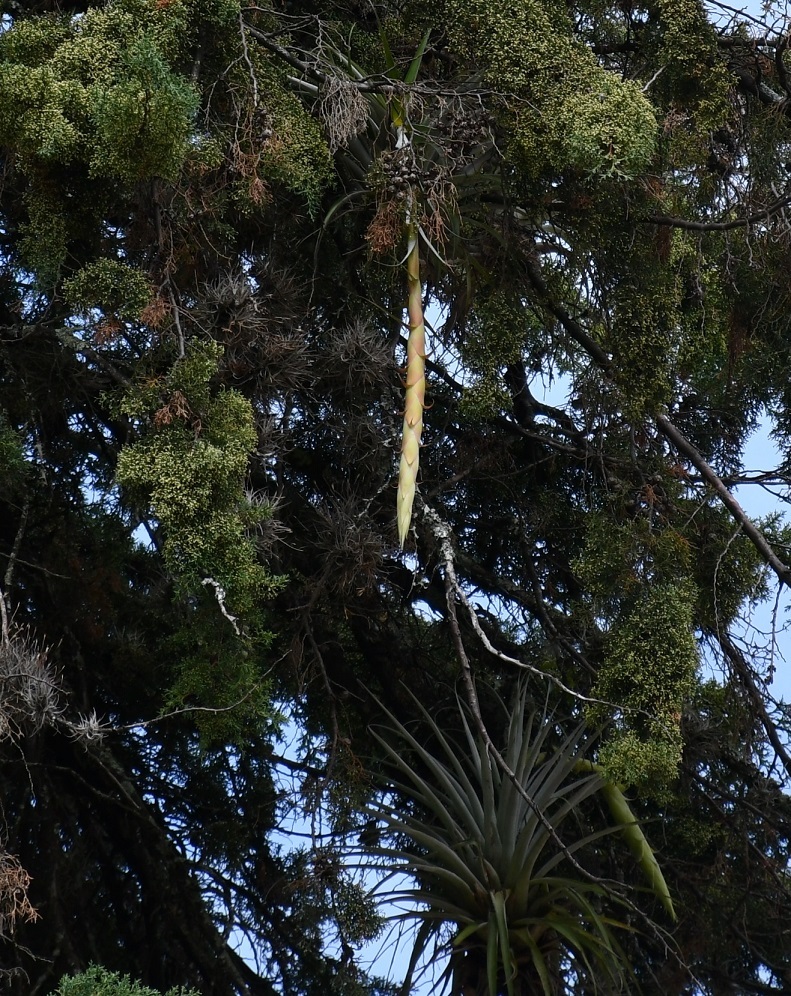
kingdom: Plantae
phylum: Tracheophyta
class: Liliopsida
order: Poales
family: Bromeliaceae
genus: Tillandsia
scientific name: Tillandsia prodigiosa
